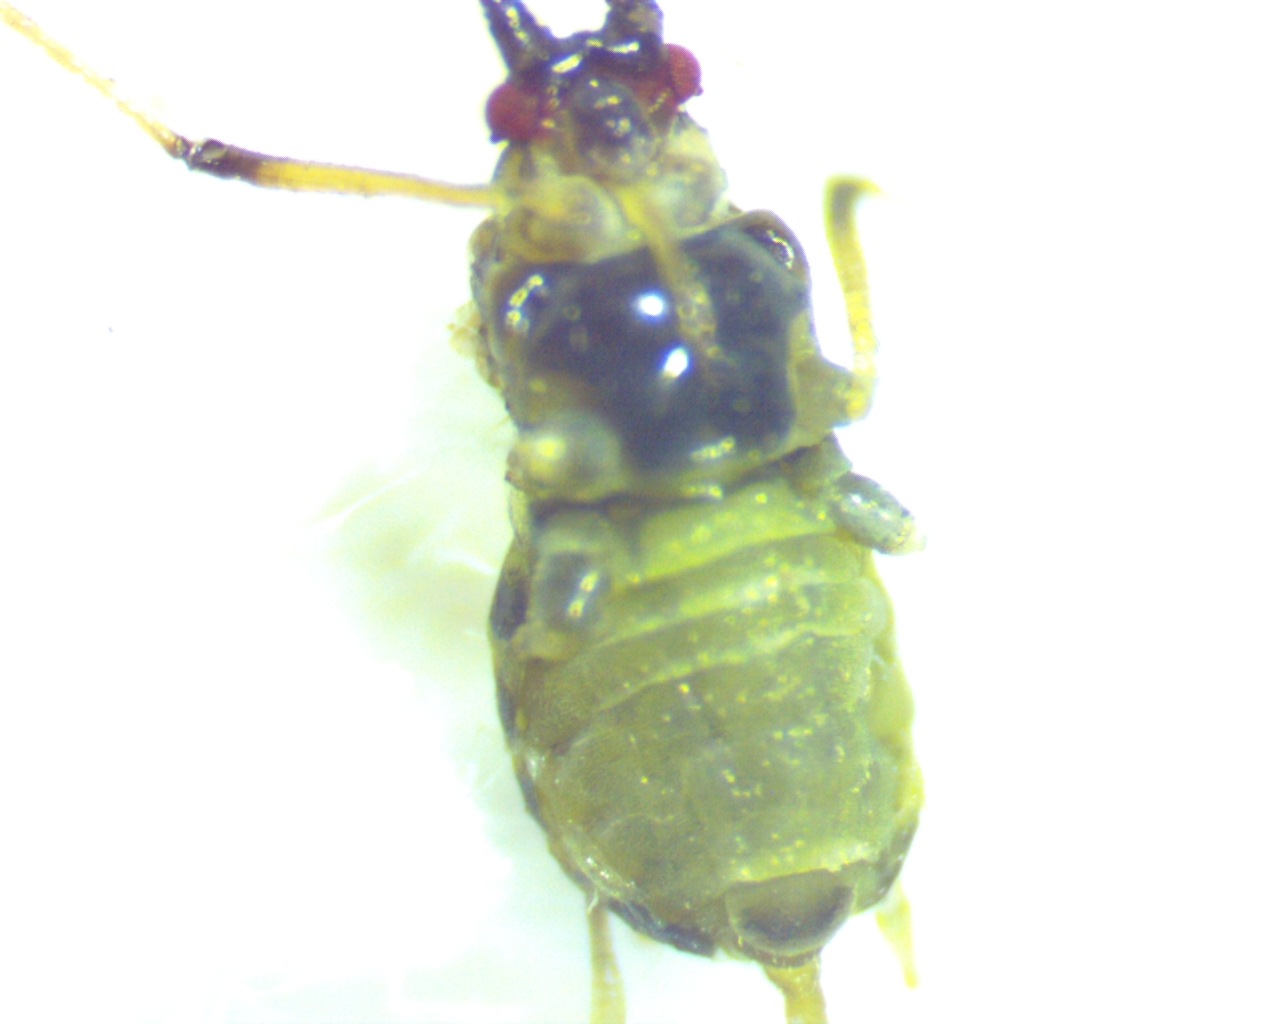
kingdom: Animalia
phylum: Arthropoda
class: Insecta
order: Hemiptera
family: Aphididae
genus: Hyperomyzus
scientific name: Hyperomyzus lactucae
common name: Sow thistle aphid
